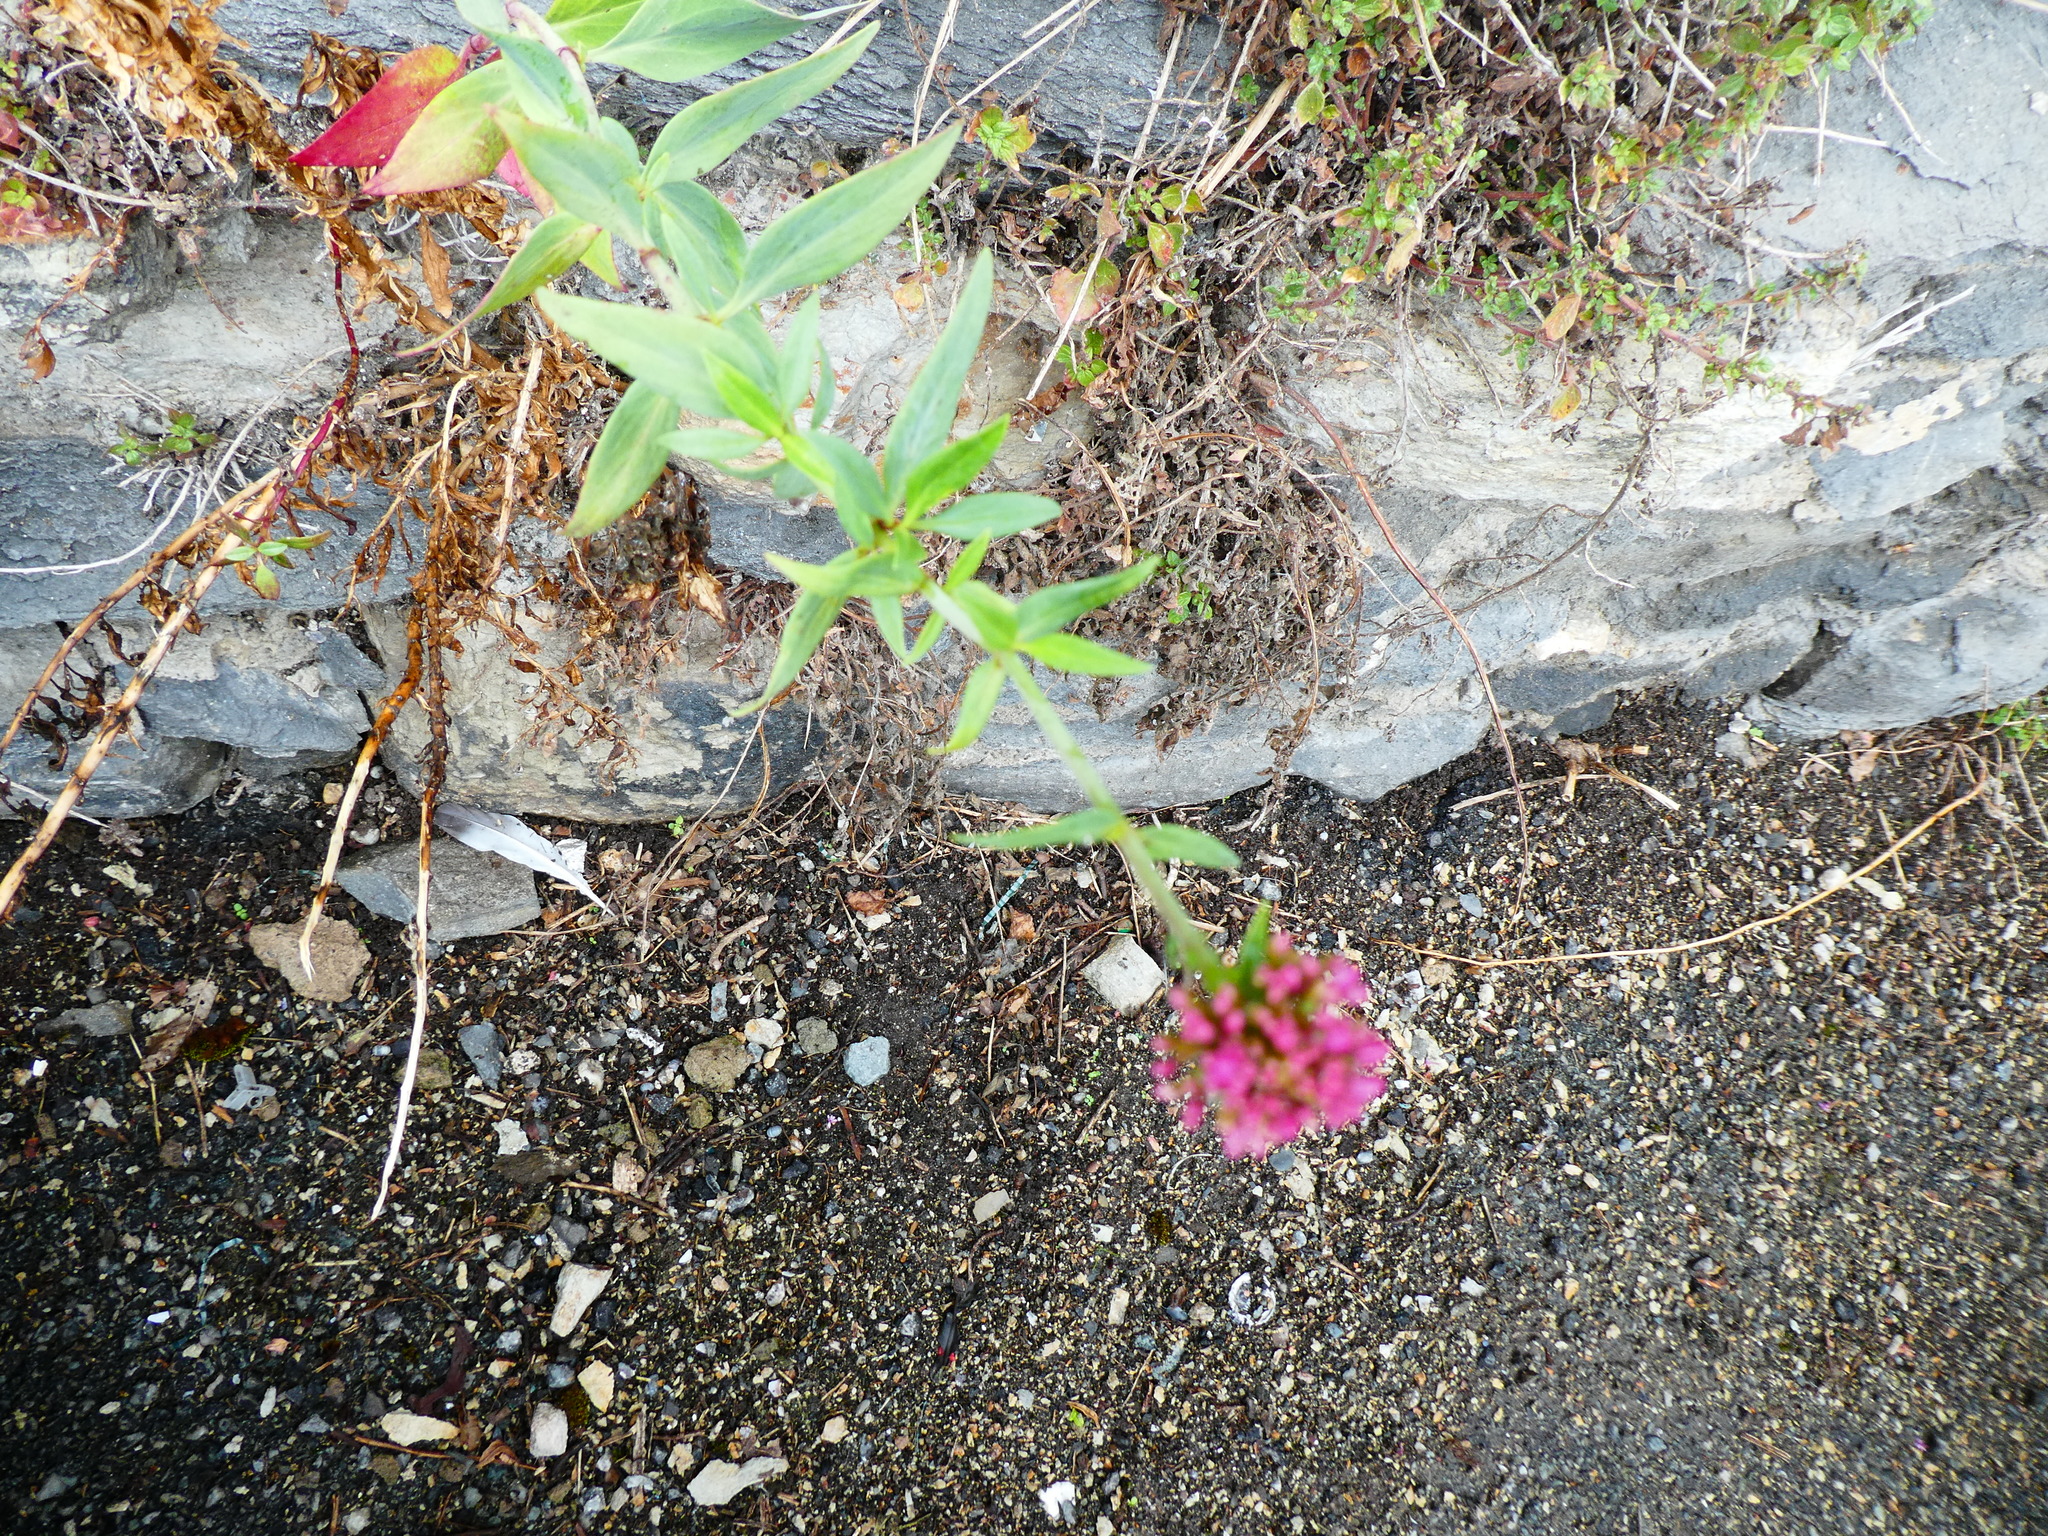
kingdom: Plantae
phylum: Tracheophyta
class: Magnoliopsida
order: Dipsacales
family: Caprifoliaceae
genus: Centranthus
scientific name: Centranthus ruber
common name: Red valerian
